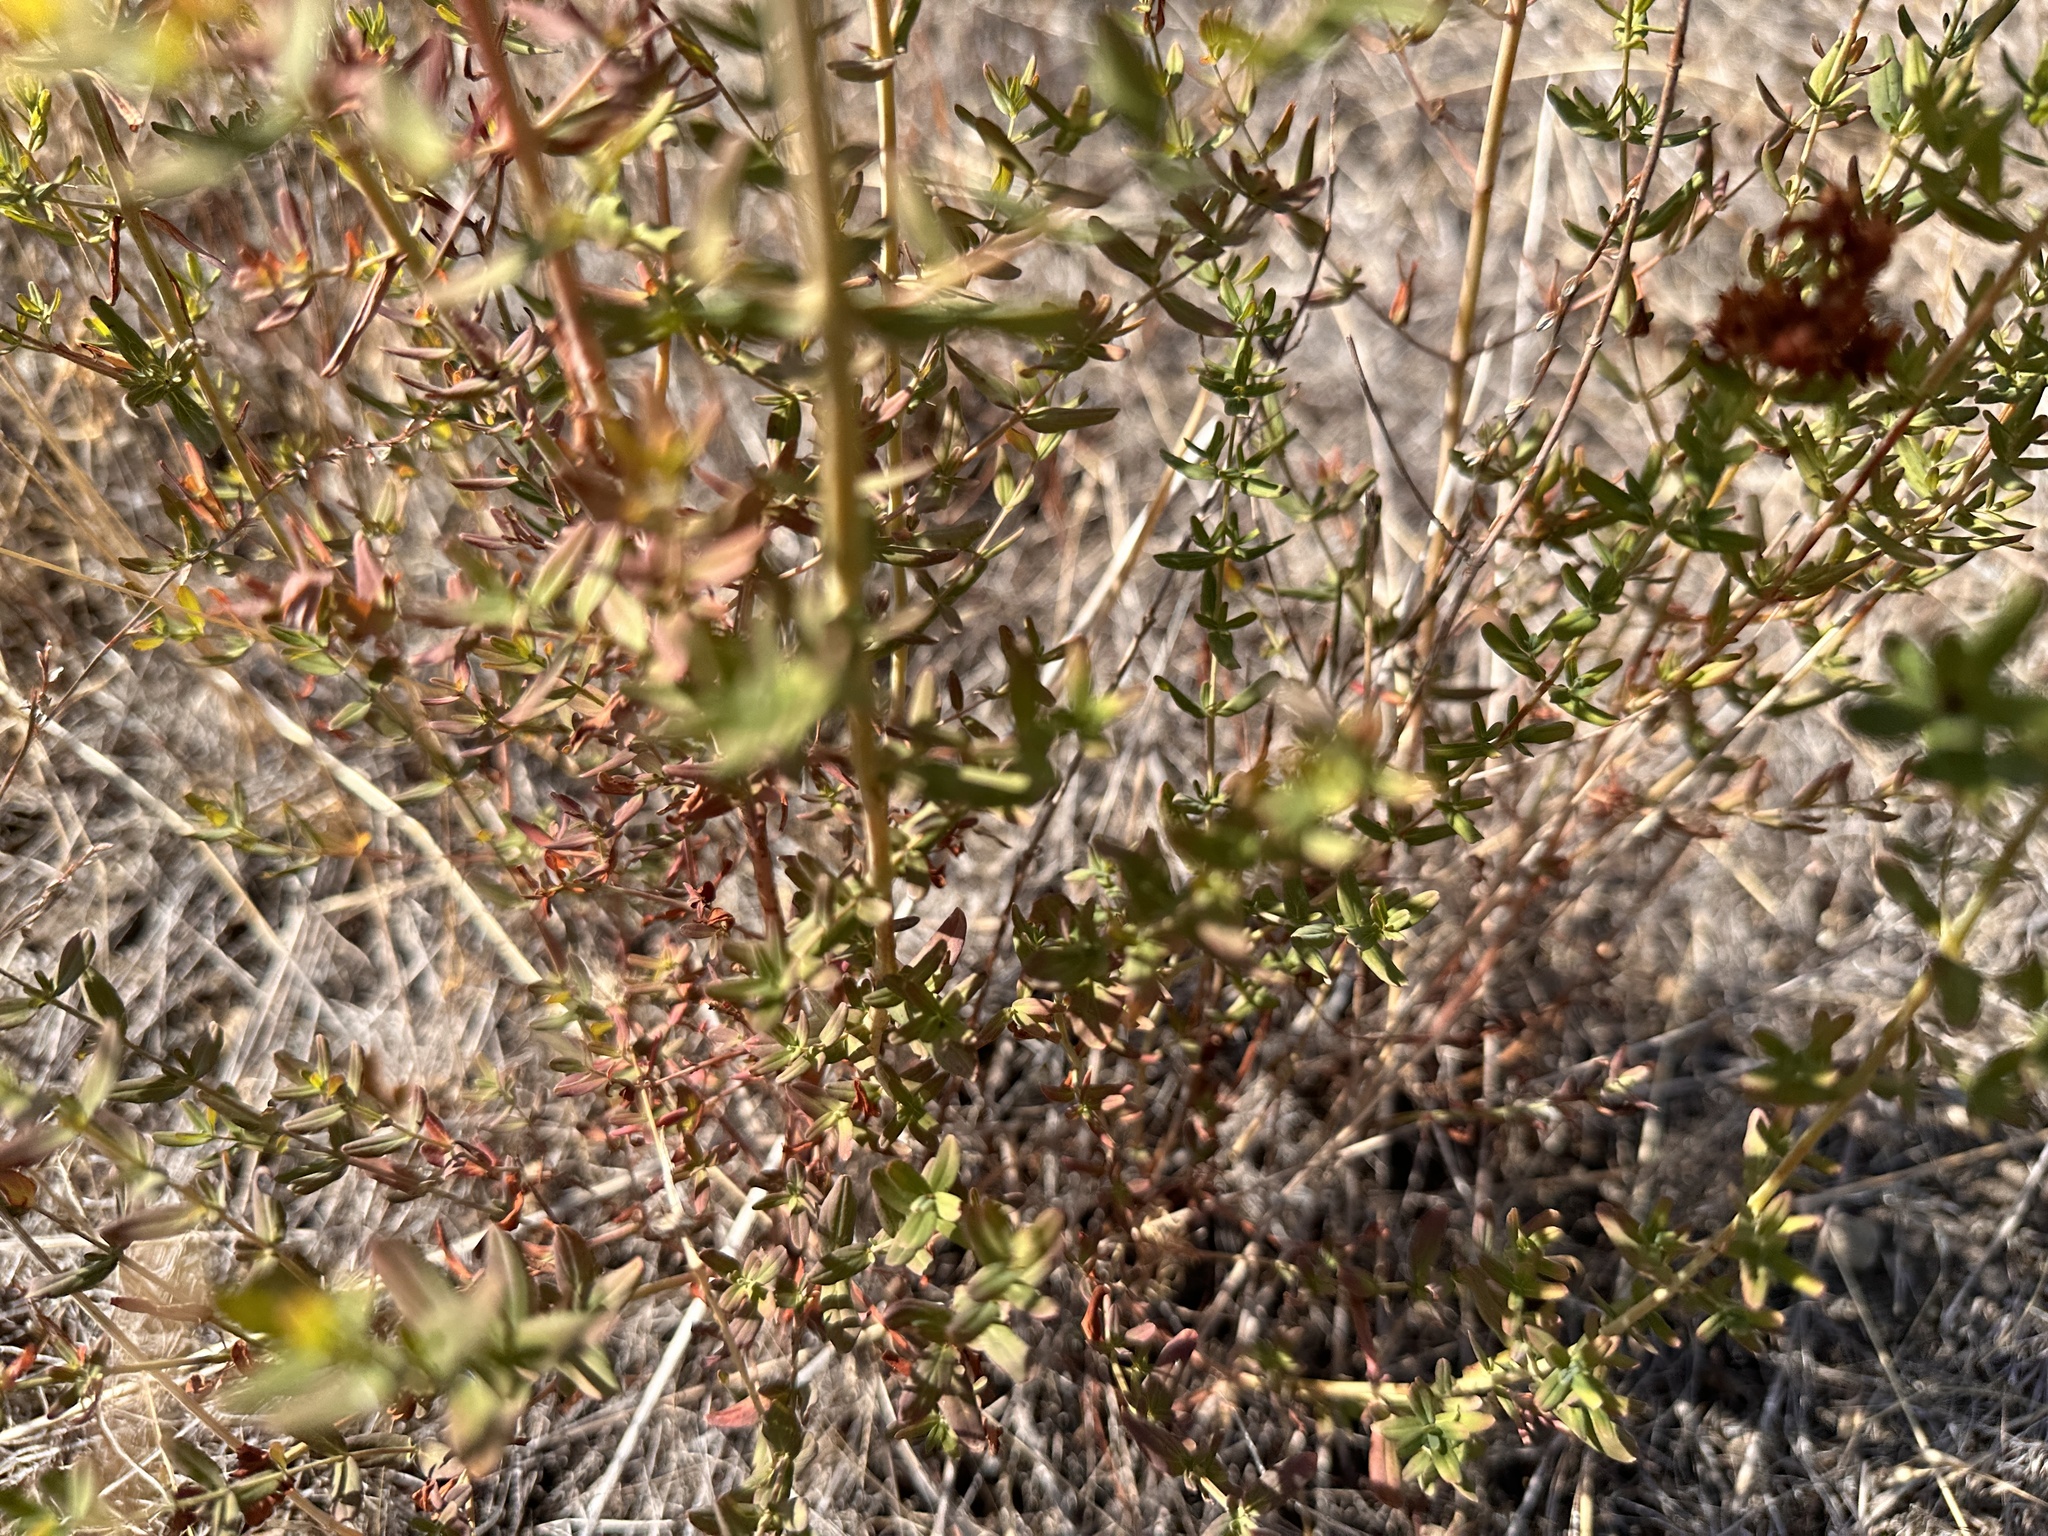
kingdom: Plantae
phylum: Tracheophyta
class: Magnoliopsida
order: Malpighiales
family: Hypericaceae
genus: Hypericum
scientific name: Hypericum perforatum
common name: Common st. johnswort
